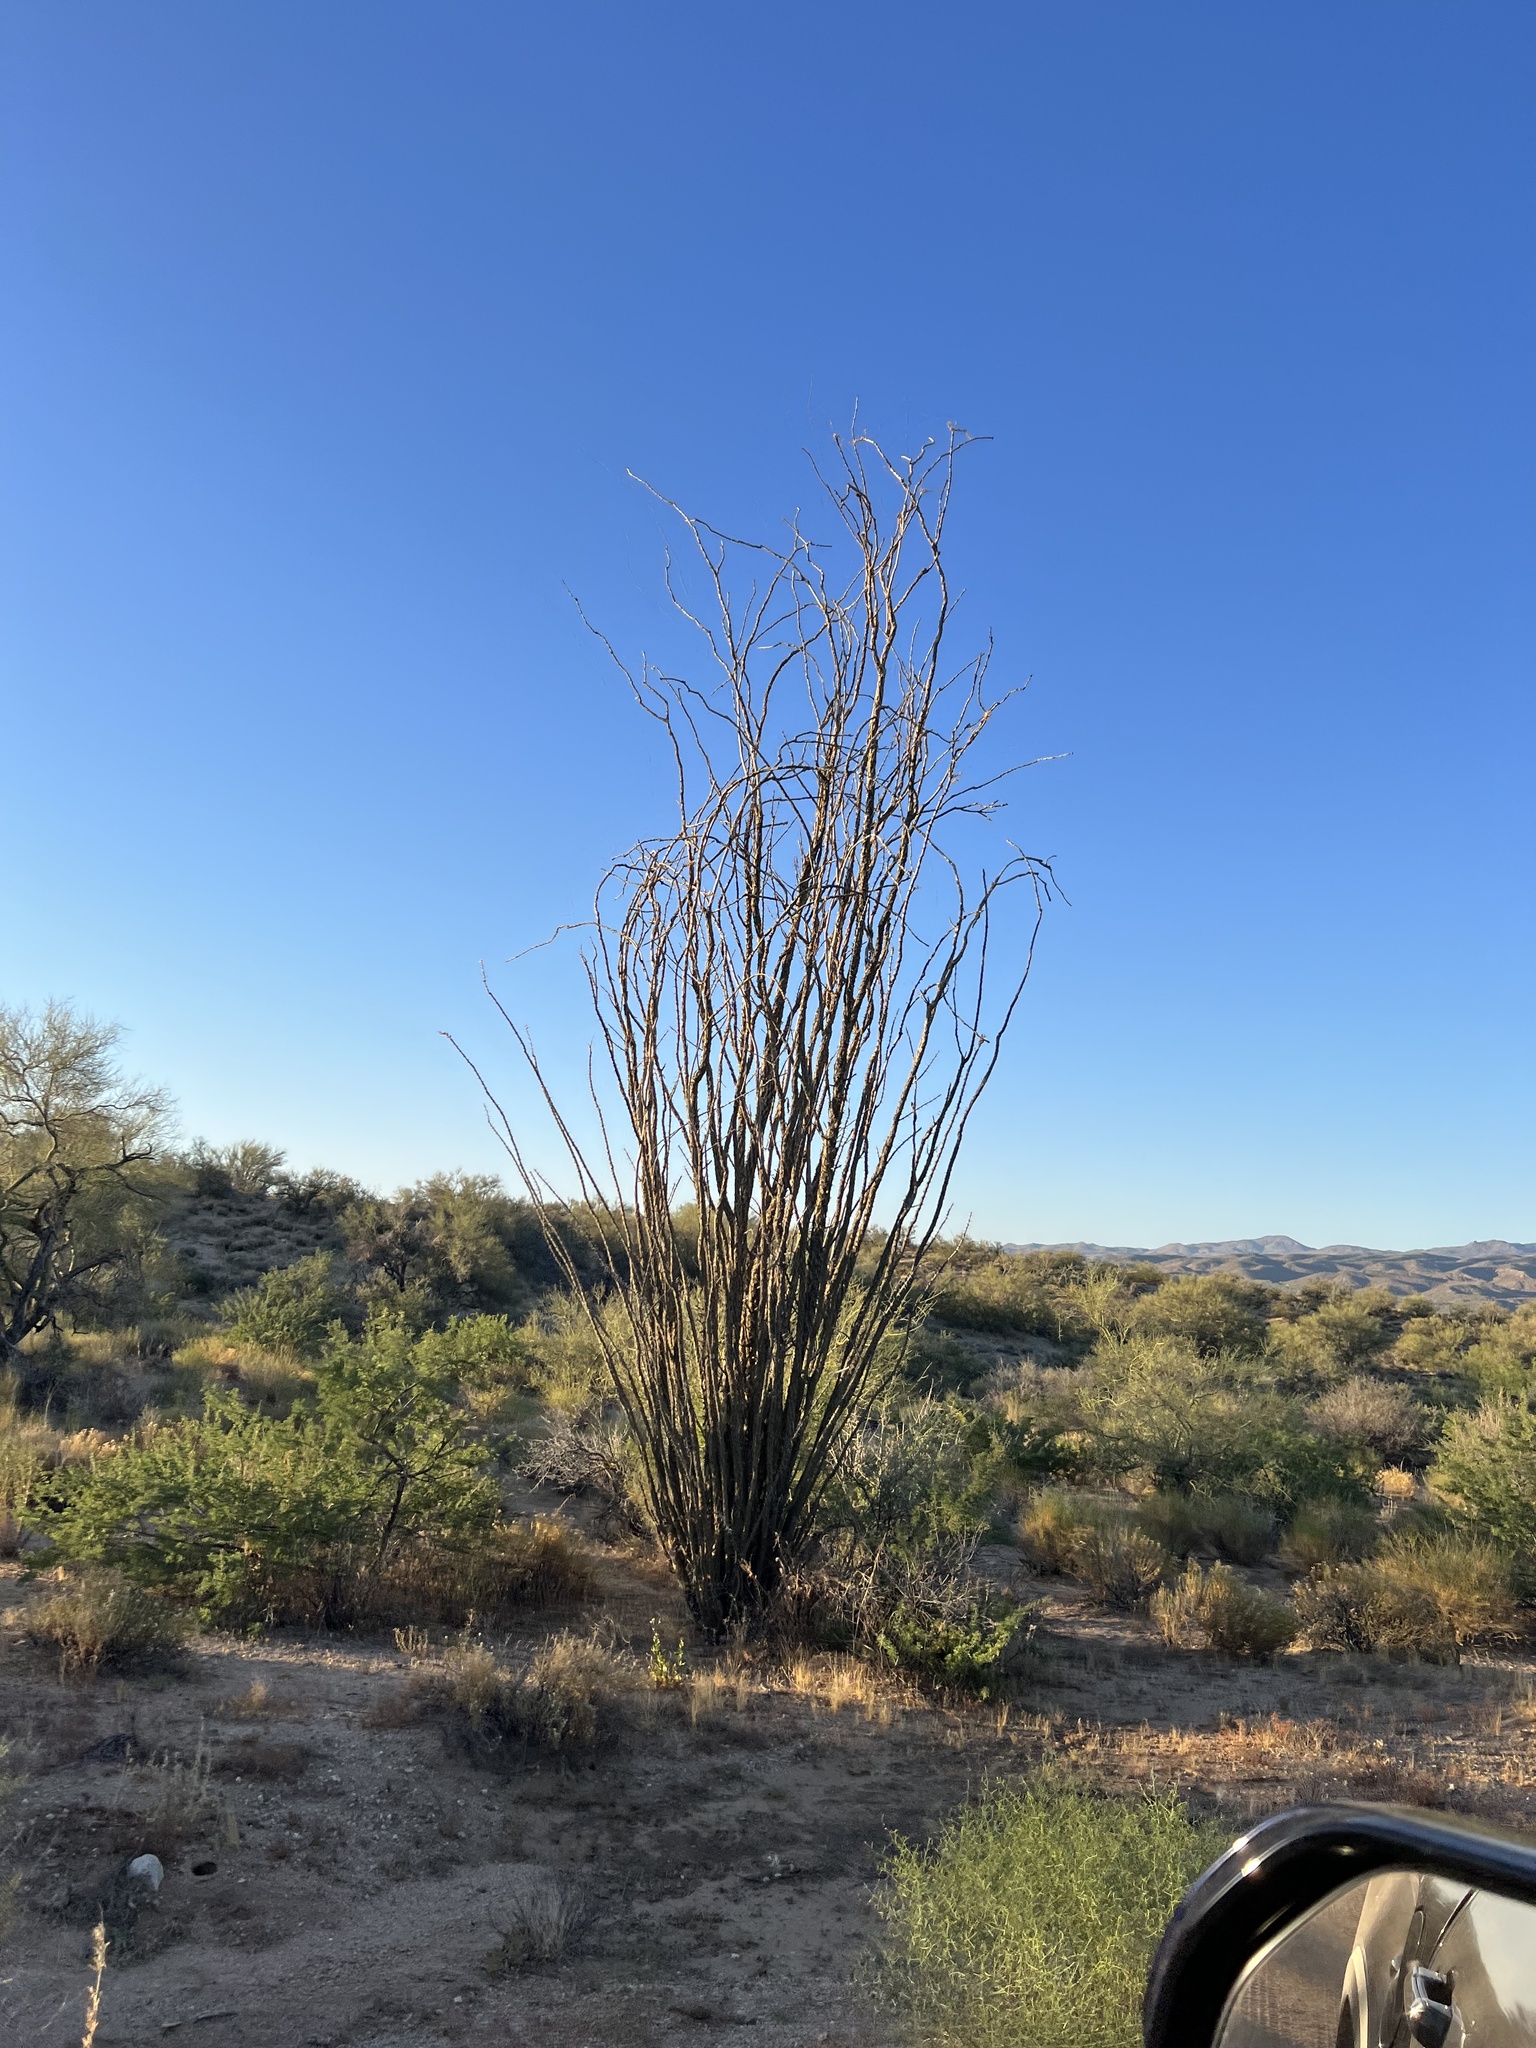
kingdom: Plantae
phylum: Tracheophyta
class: Magnoliopsida
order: Ericales
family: Fouquieriaceae
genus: Fouquieria
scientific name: Fouquieria splendens
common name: Vine-cactus
